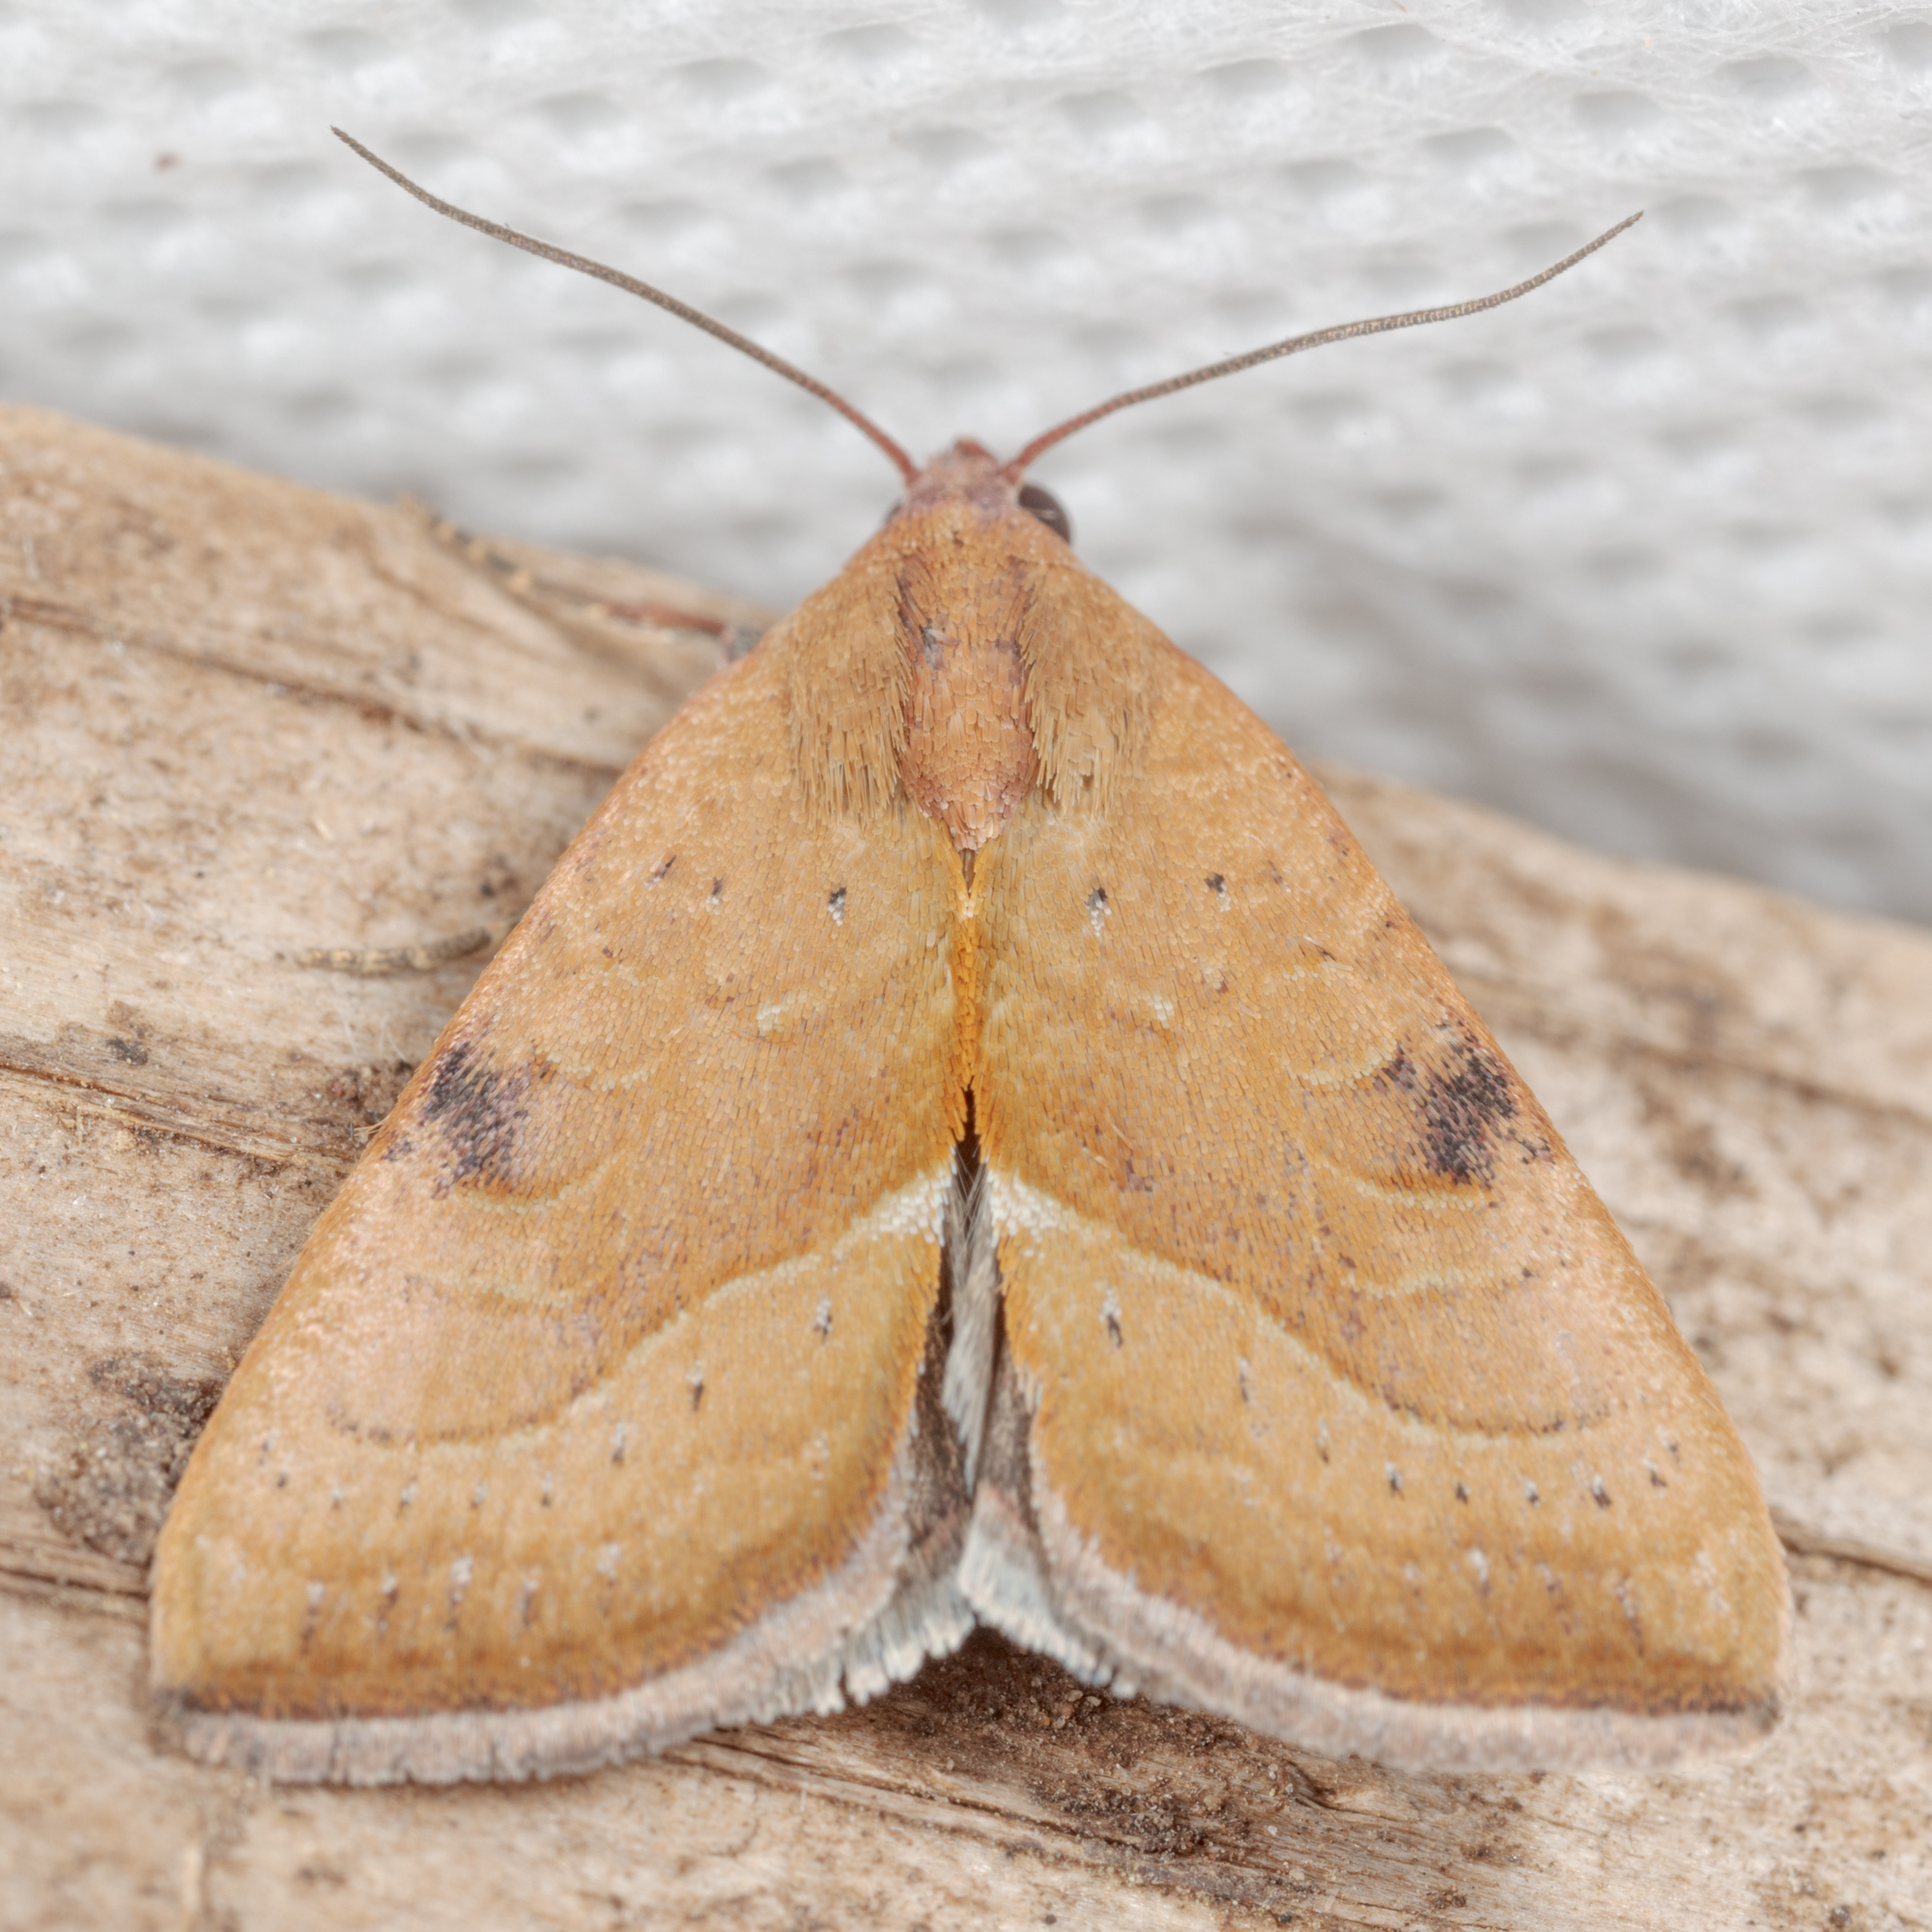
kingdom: Animalia
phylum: Arthropoda
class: Insecta
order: Lepidoptera
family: Noctuidae
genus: Galgula
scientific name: Galgula partita
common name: Wedgeling
